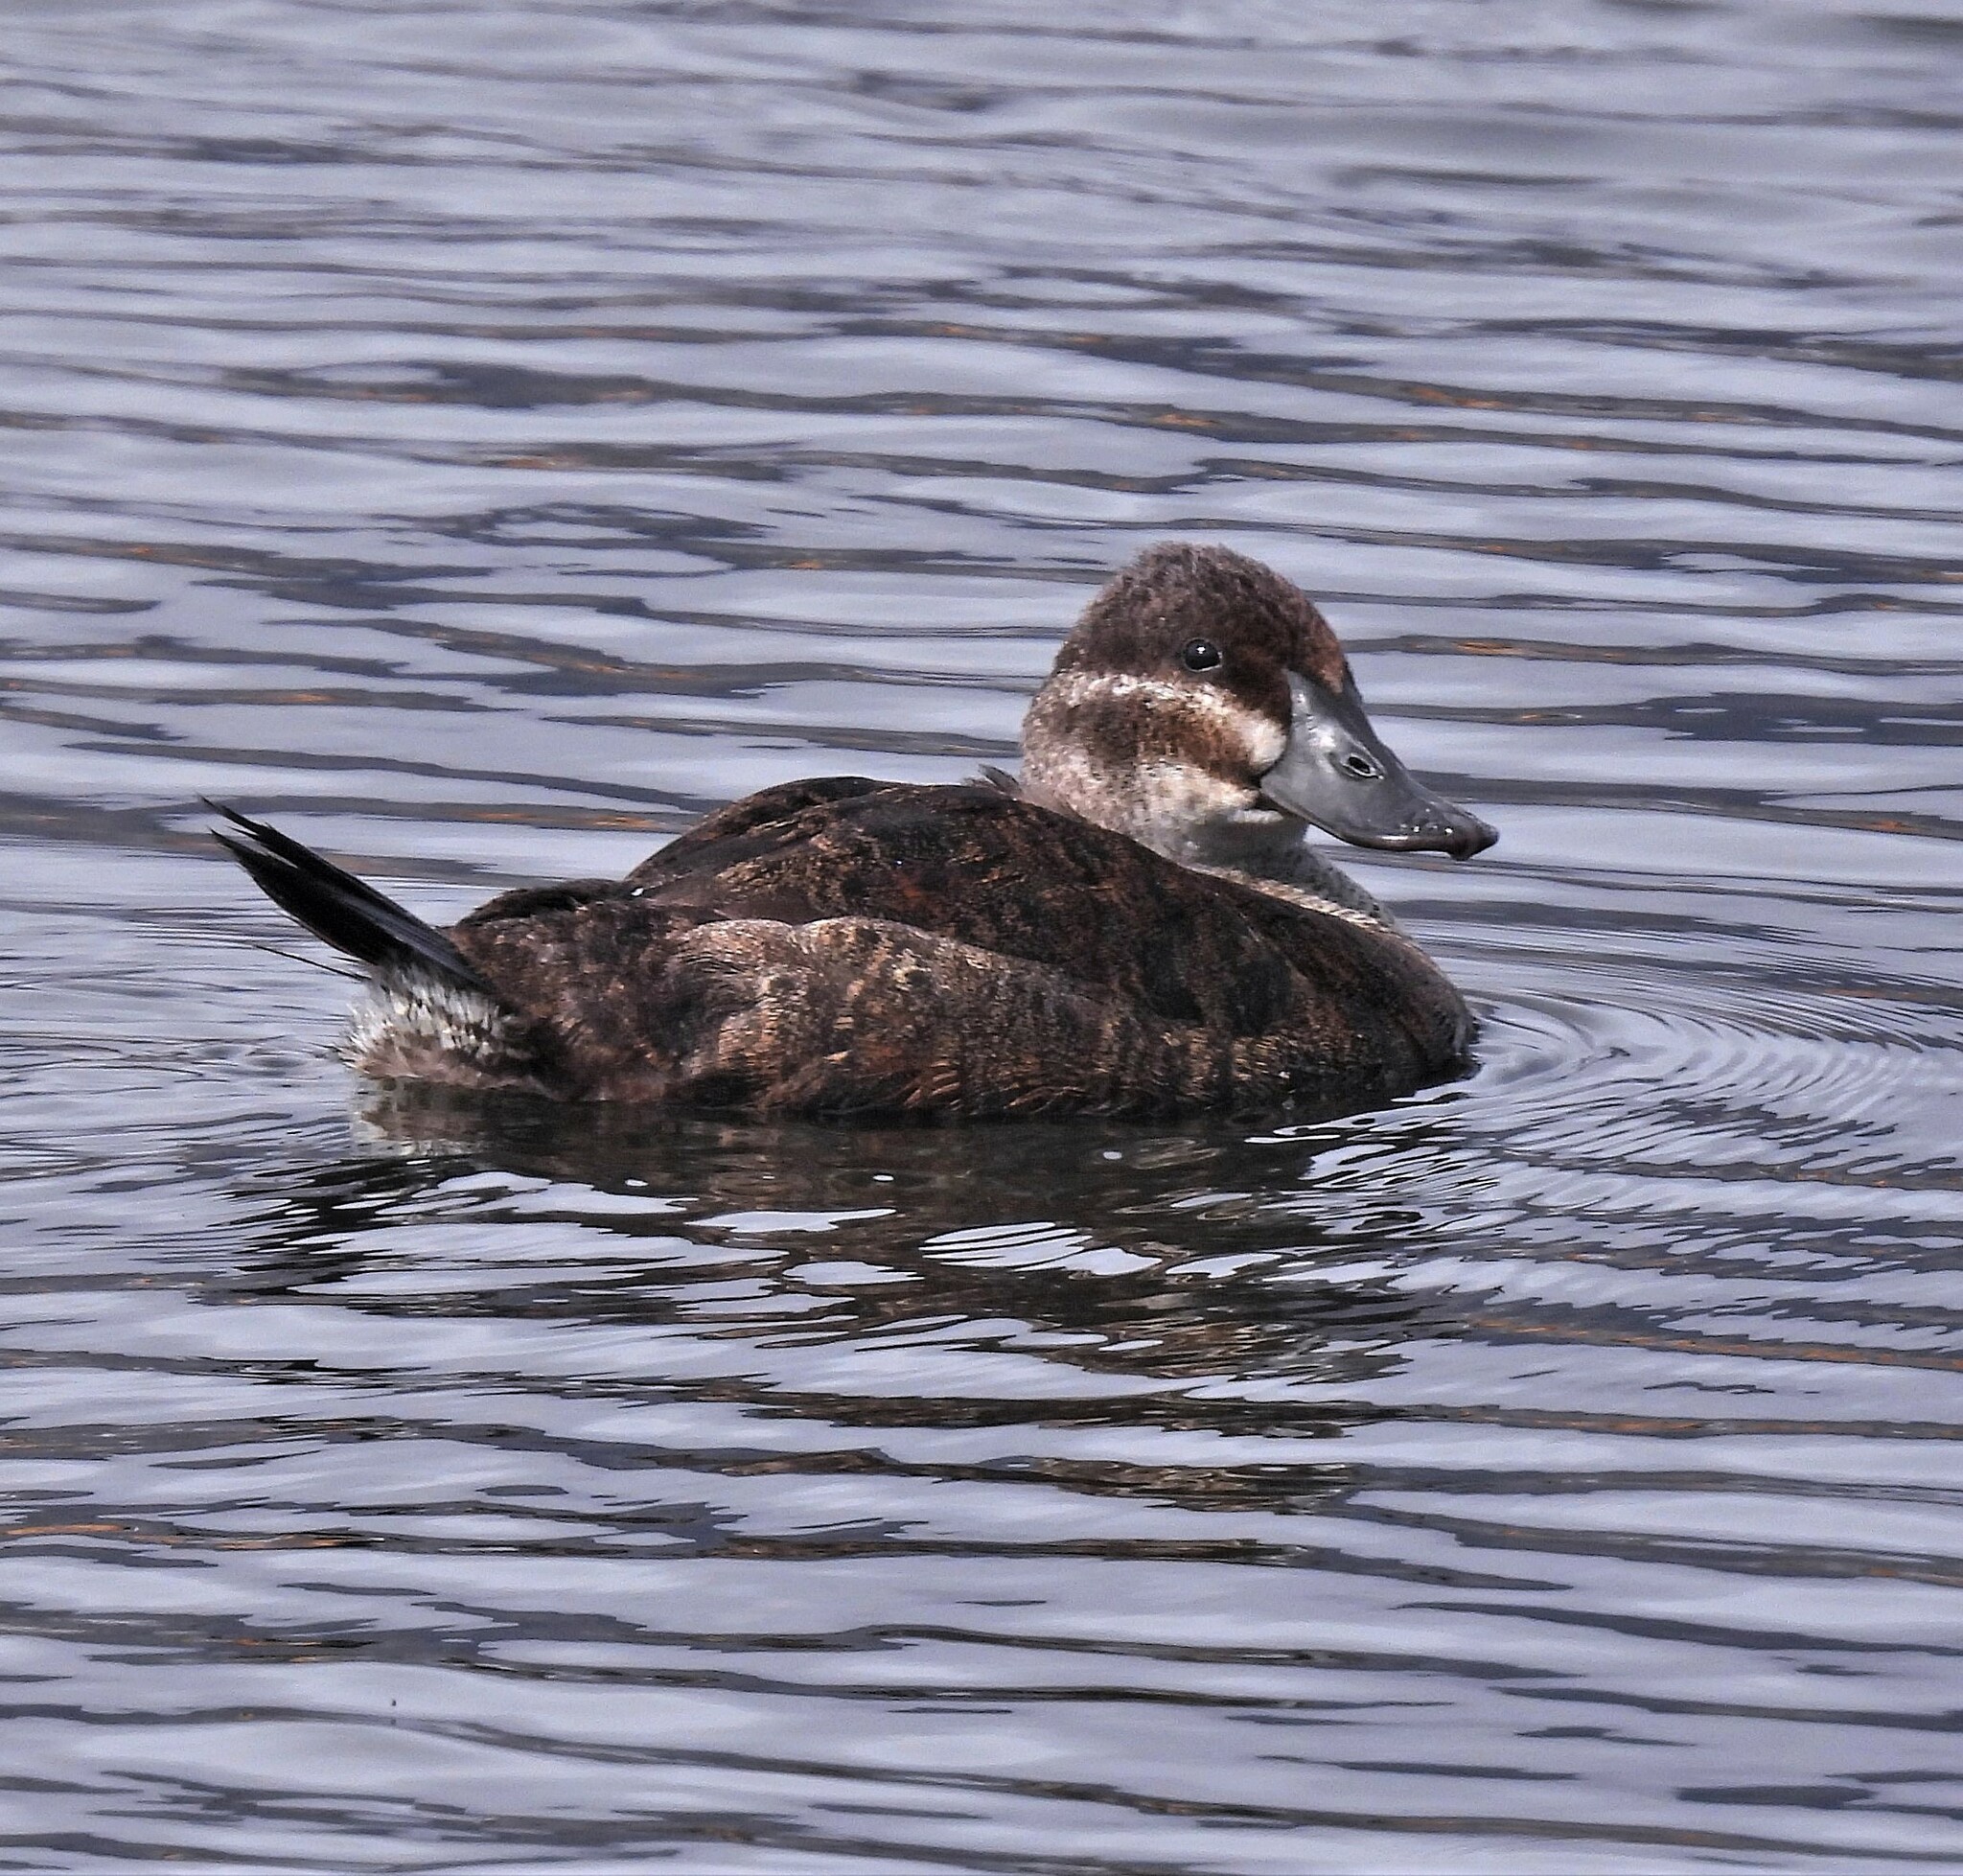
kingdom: Animalia
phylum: Chordata
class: Aves
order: Anseriformes
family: Anatidae
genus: Oxyura
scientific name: Oxyura vittata
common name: Lake duck
